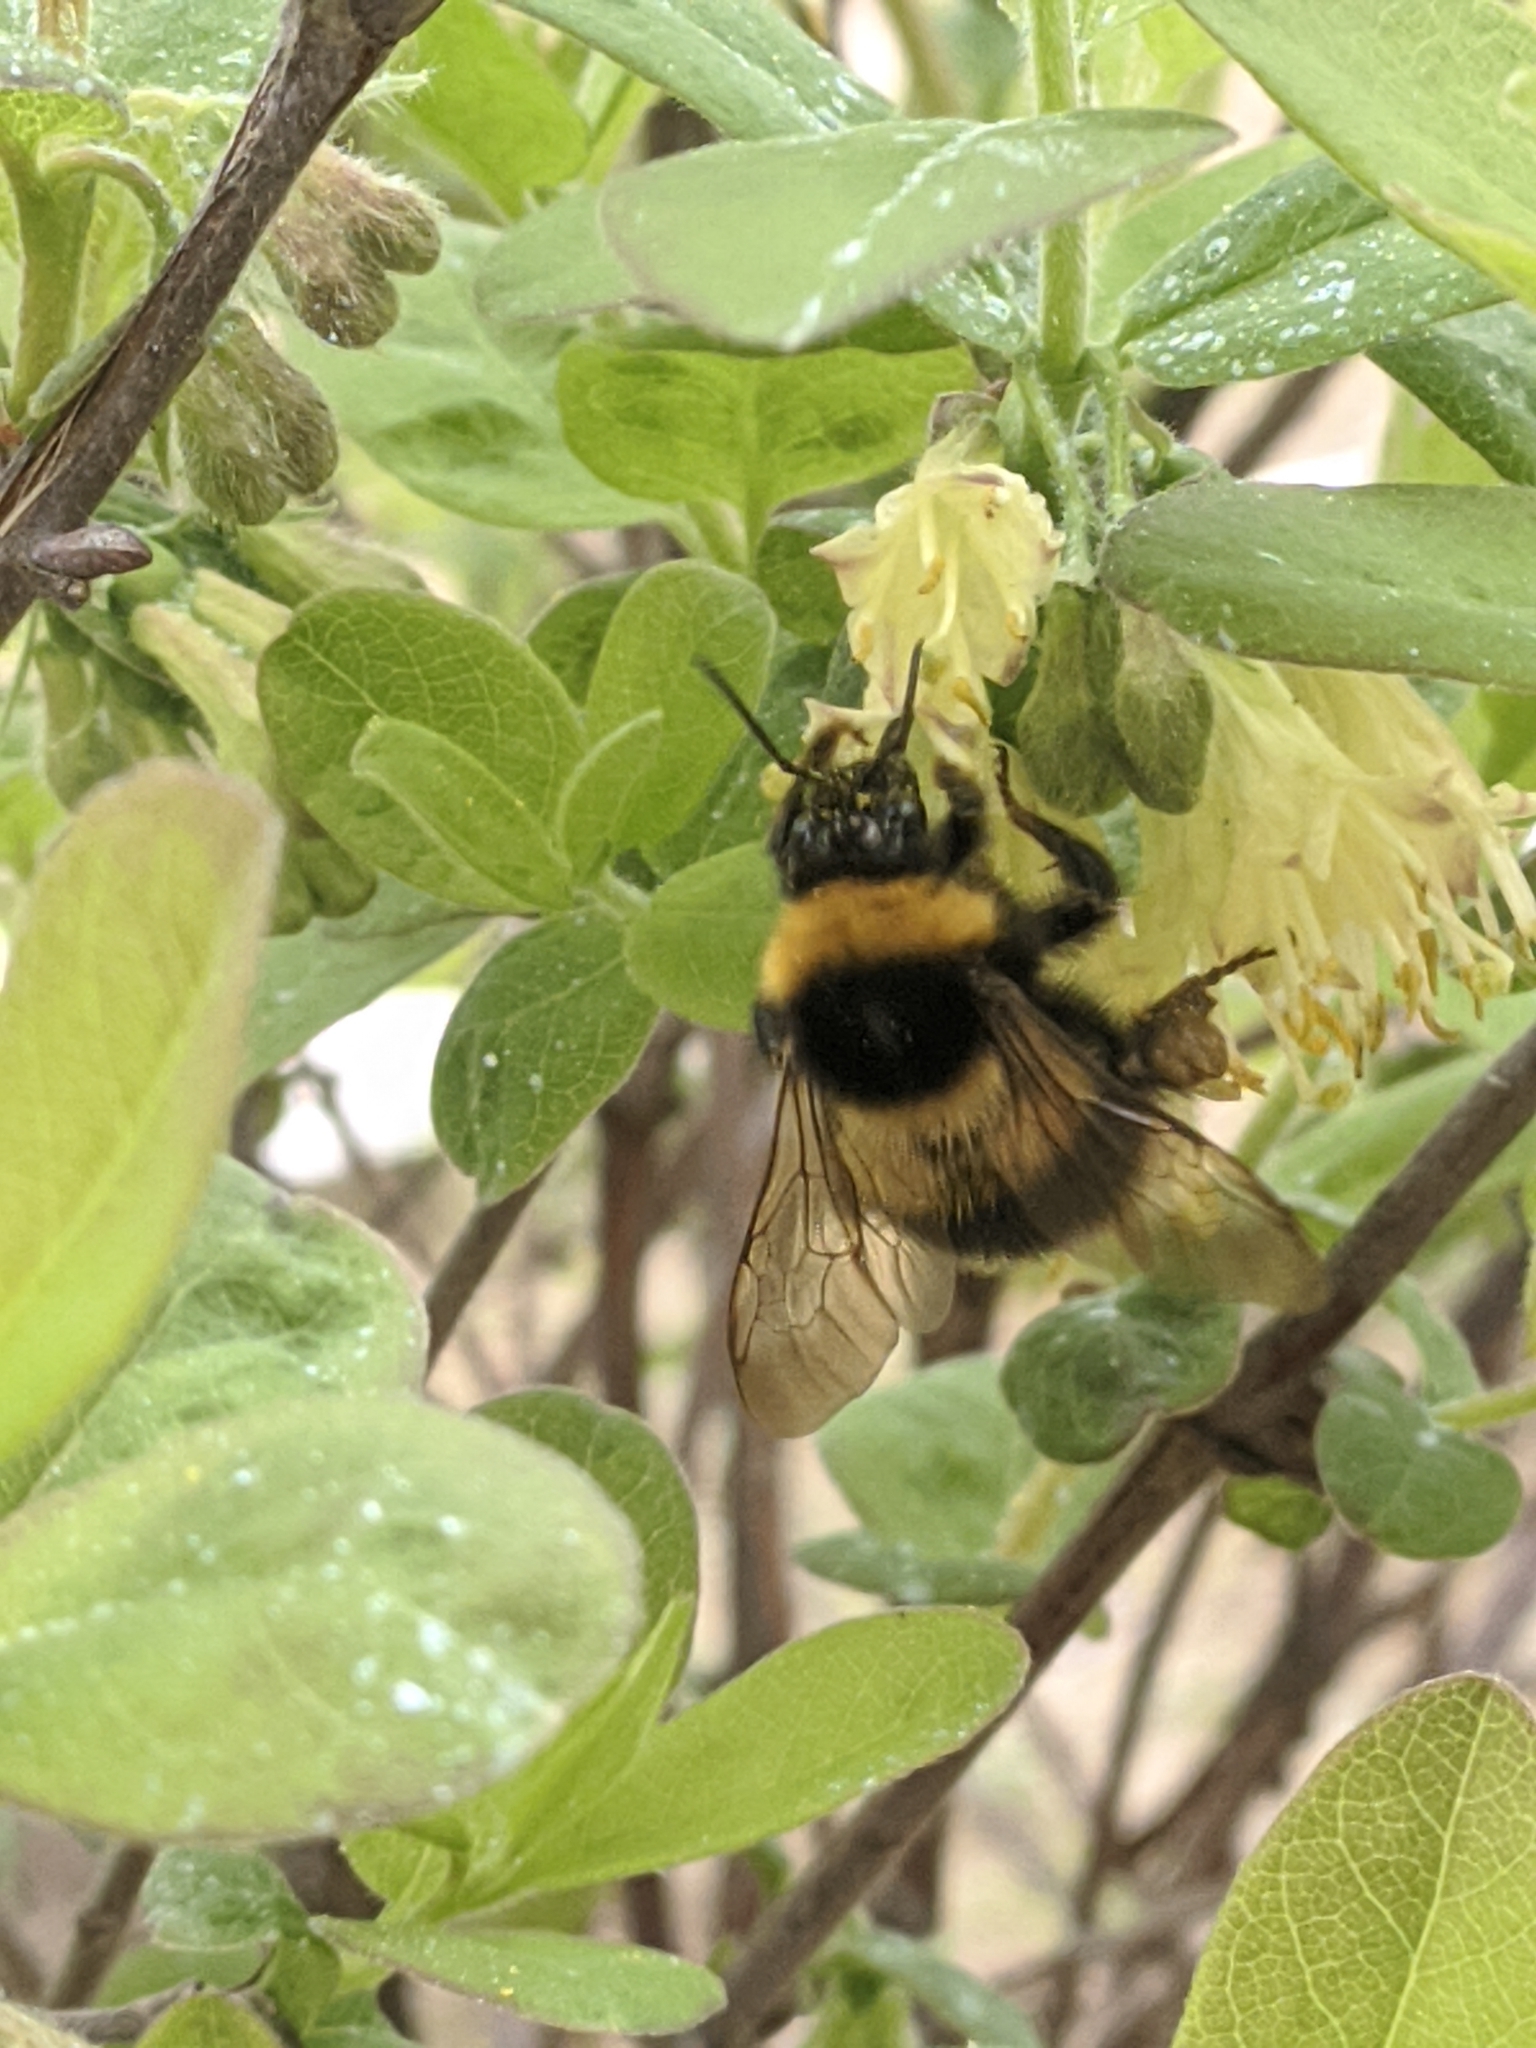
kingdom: Animalia
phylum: Arthropoda
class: Insecta
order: Hymenoptera
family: Apidae
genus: Bombus
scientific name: Bombus hortorum
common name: Garden bumblebee
